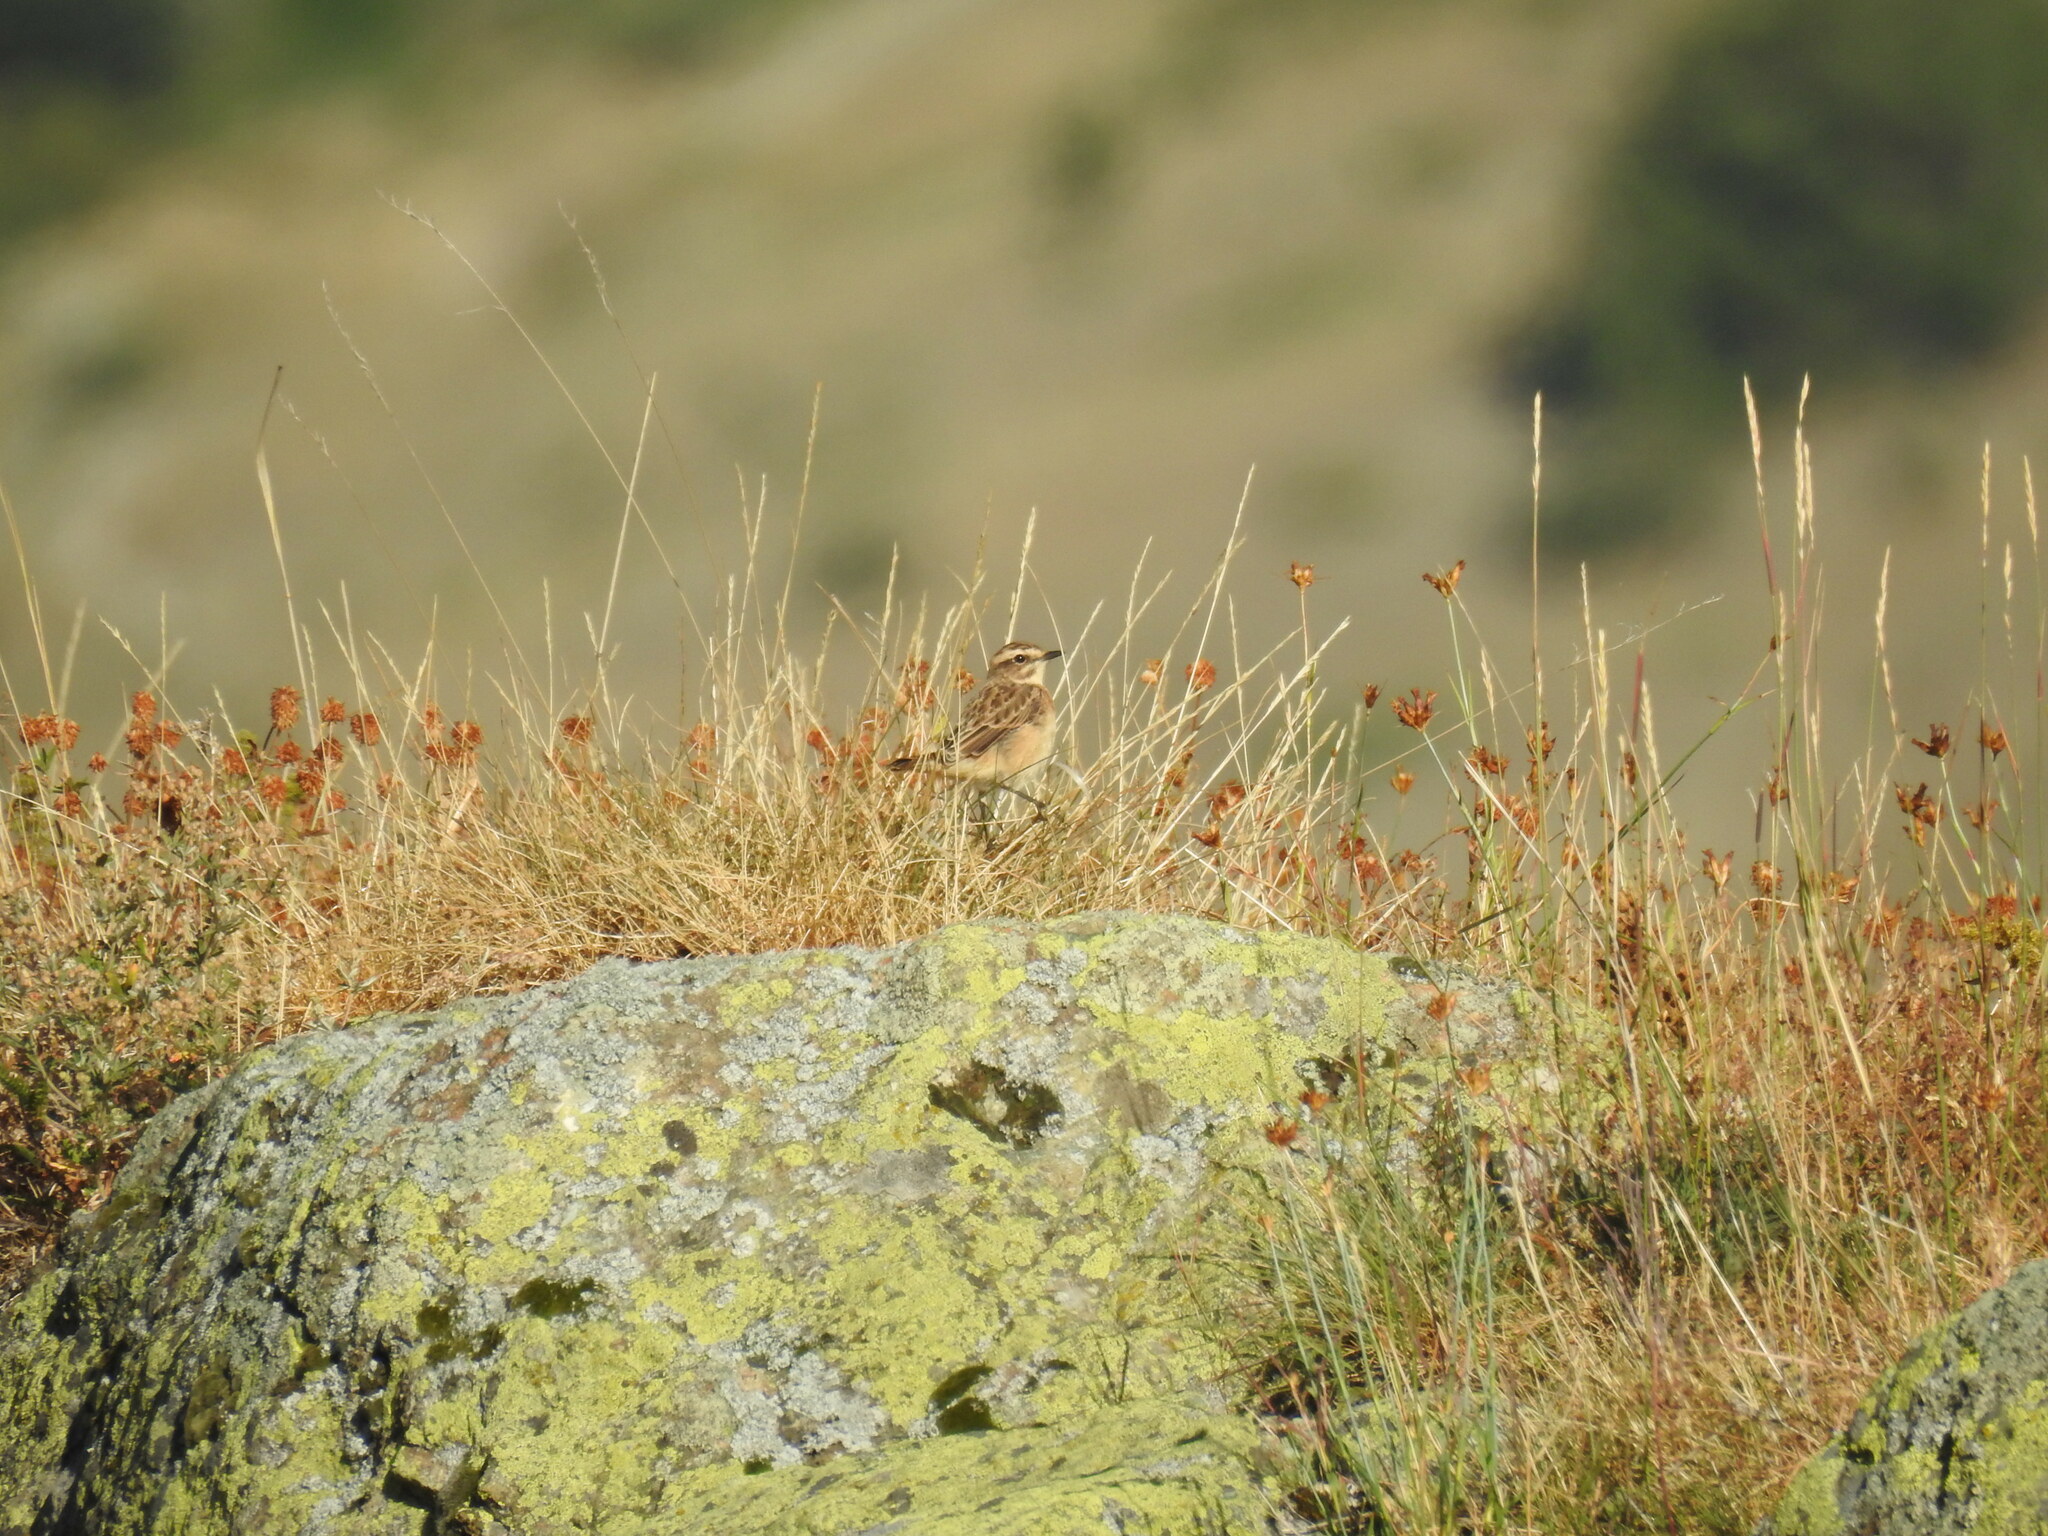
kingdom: Animalia
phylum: Chordata
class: Aves
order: Passeriformes
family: Muscicapidae
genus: Saxicola
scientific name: Saxicola rubetra
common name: Whinchat
